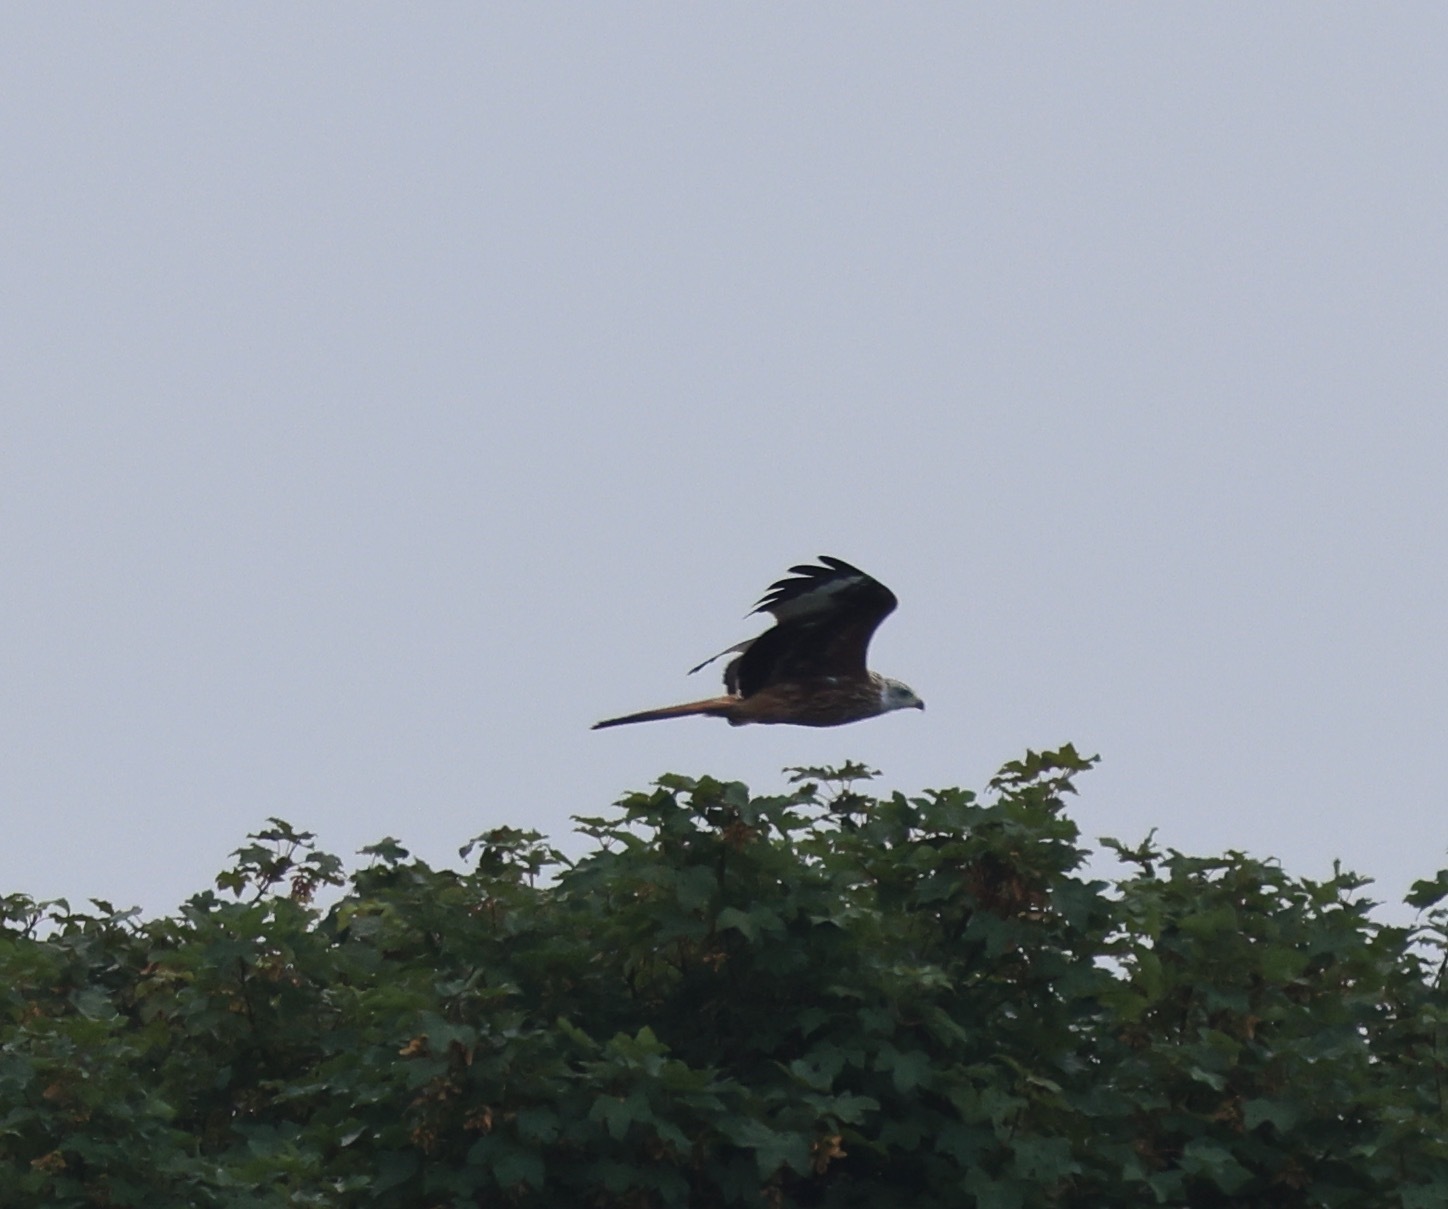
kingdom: Animalia
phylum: Chordata
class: Aves
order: Accipitriformes
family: Accipitridae
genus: Milvus
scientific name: Milvus milvus
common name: Red kite
